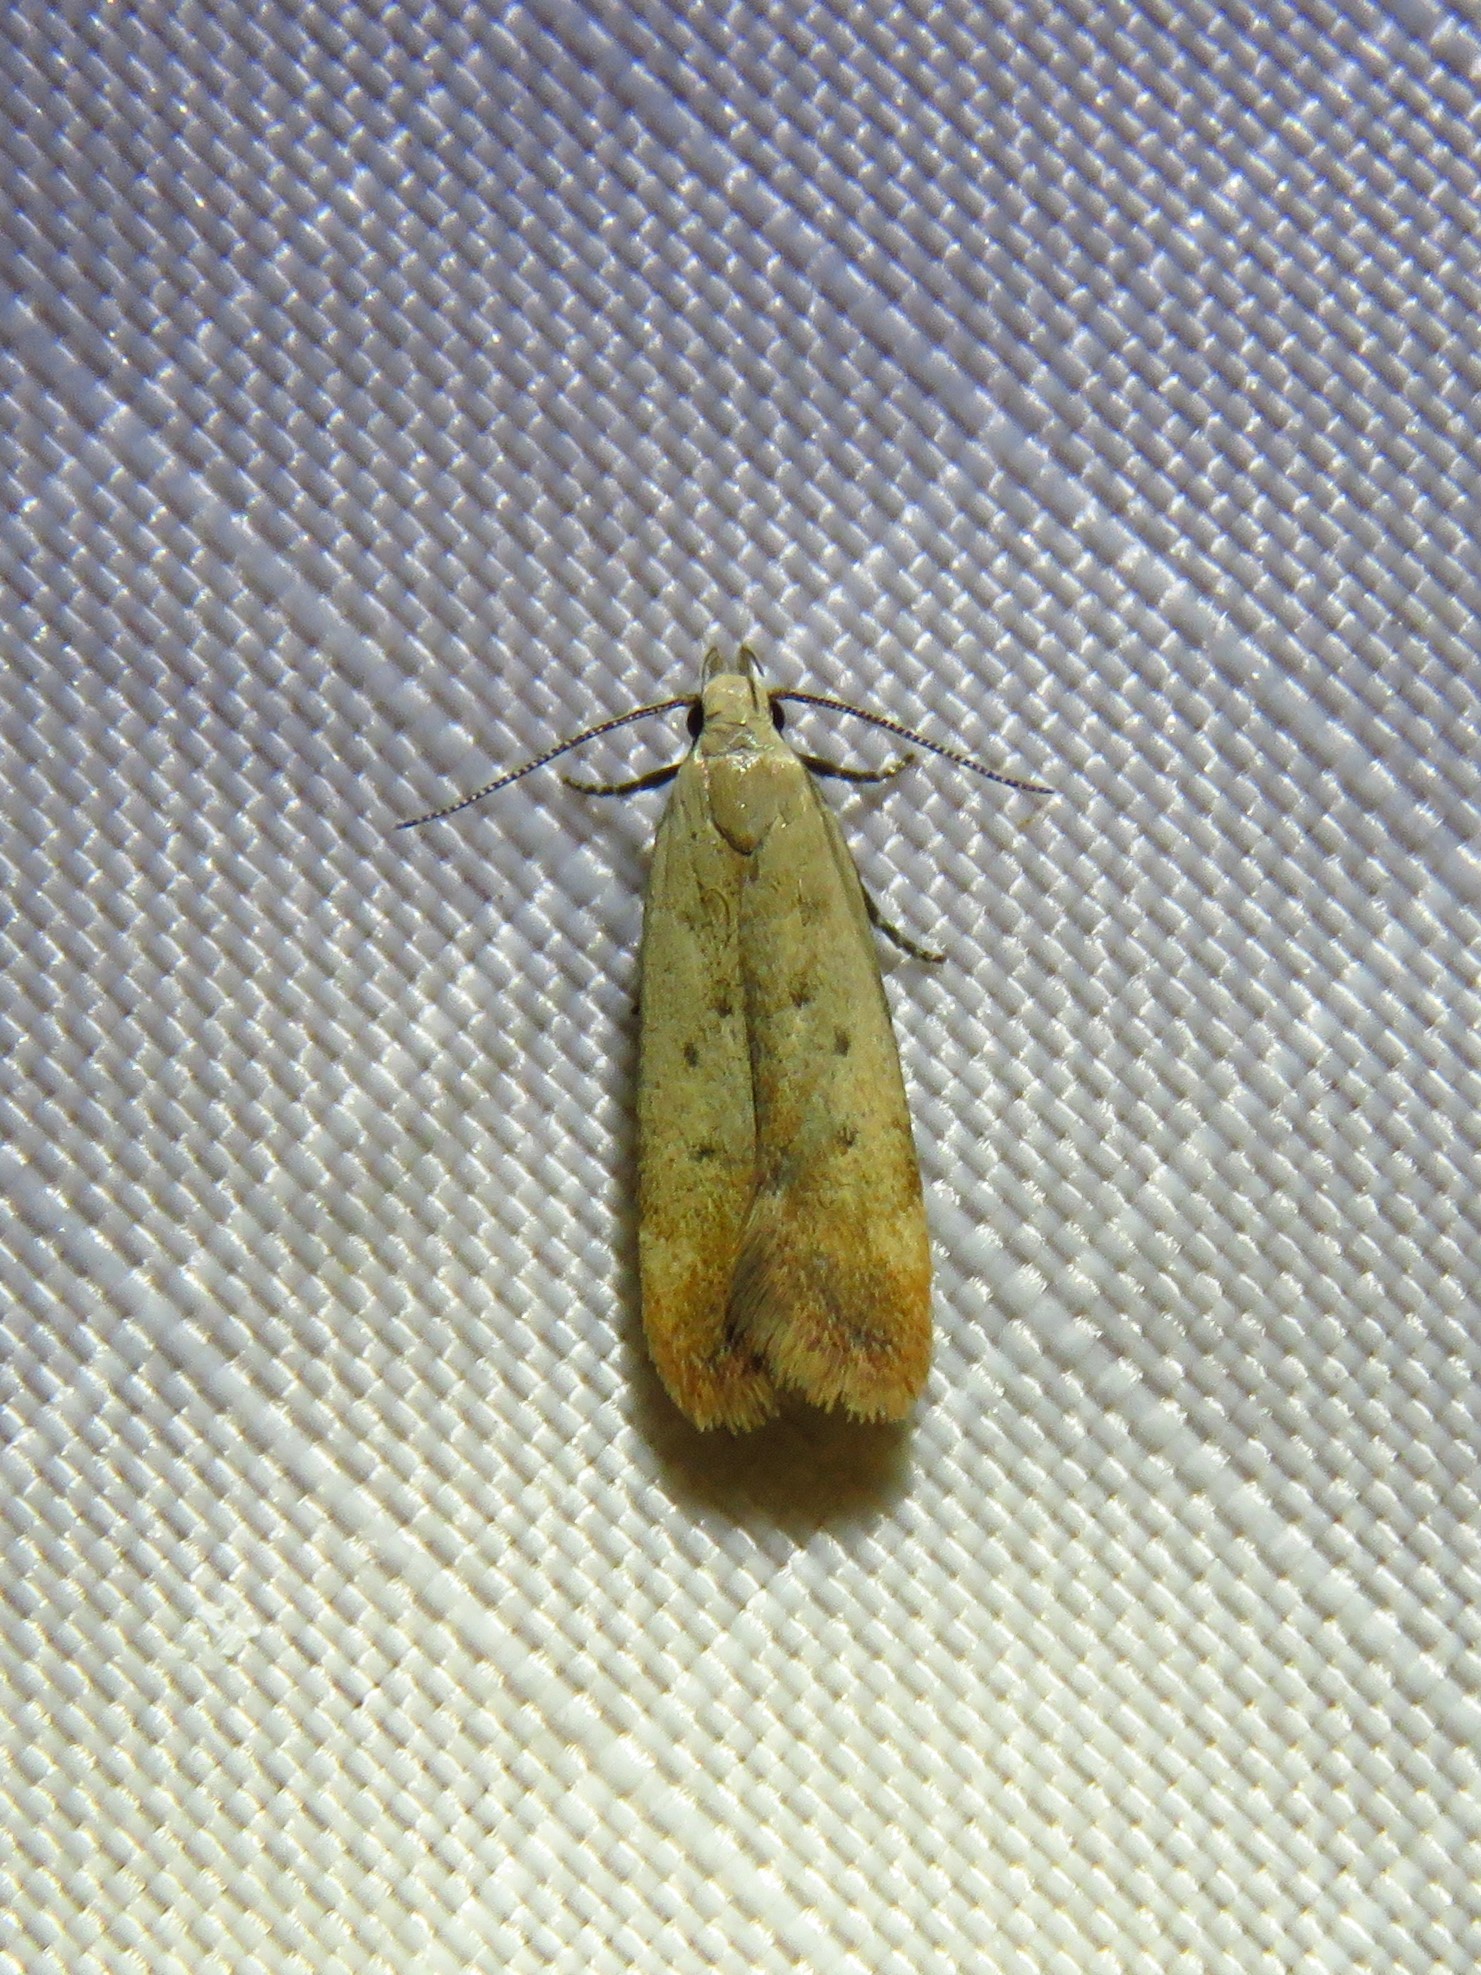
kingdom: Animalia
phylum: Arthropoda
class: Insecta
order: Lepidoptera
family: Gelechiidae
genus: Anacampsis
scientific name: Anacampsis fullonella
